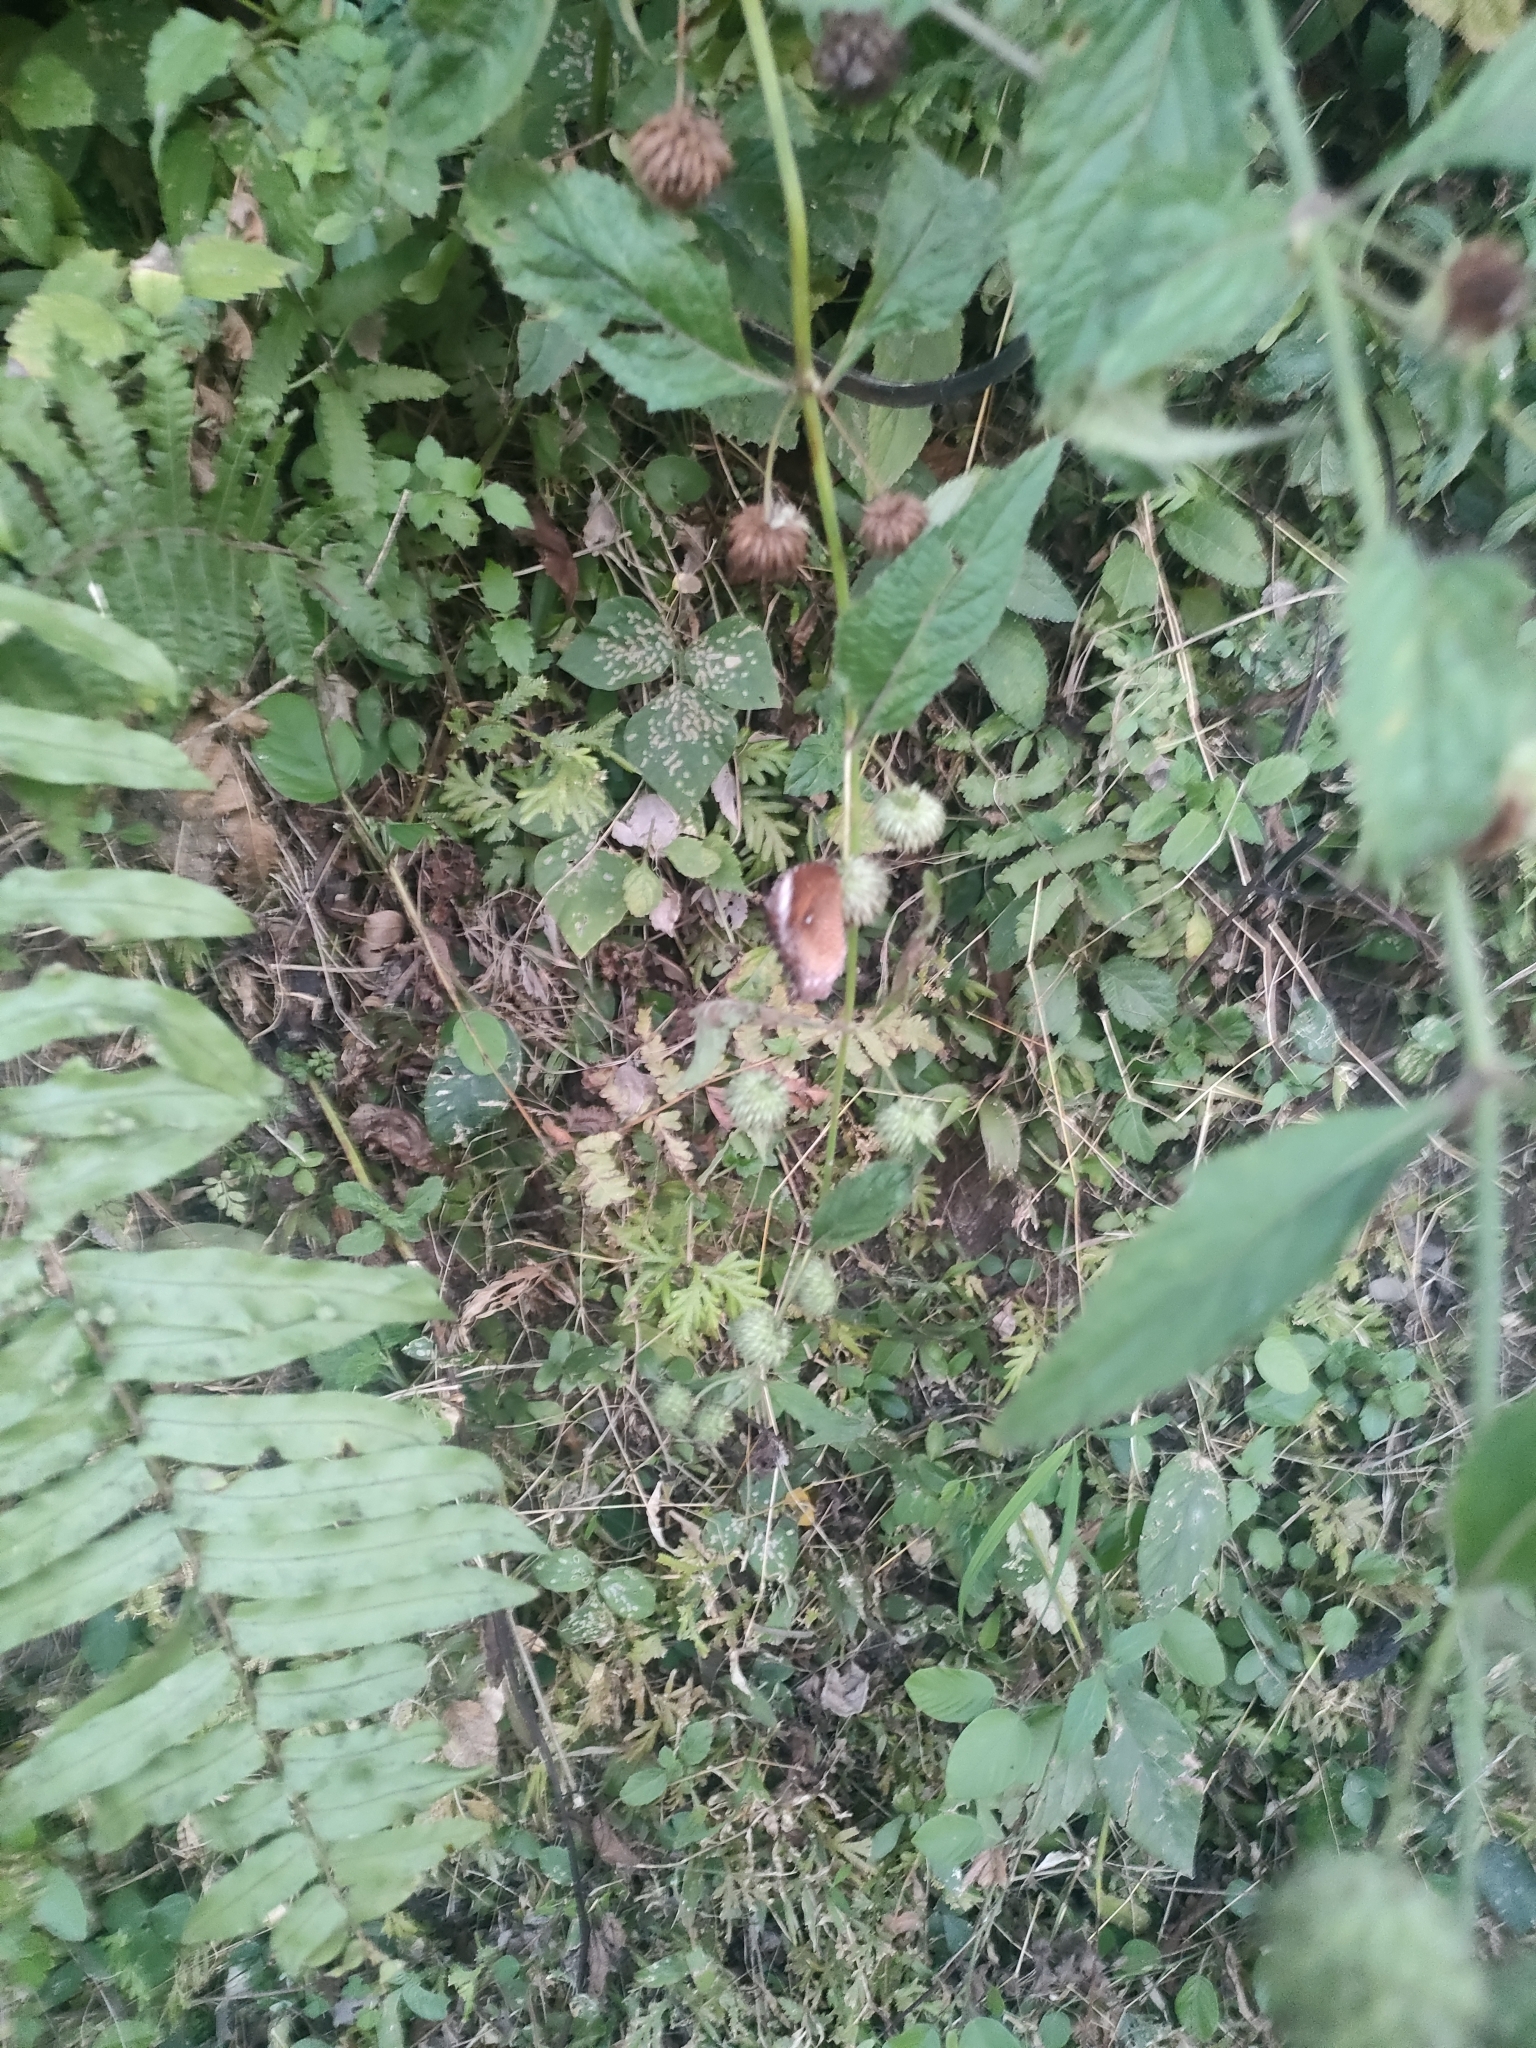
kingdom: Animalia
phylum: Arthropoda
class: Insecta
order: Lepidoptera
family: Nymphalidae
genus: Elymnias
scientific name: Elymnias hypermnestra
